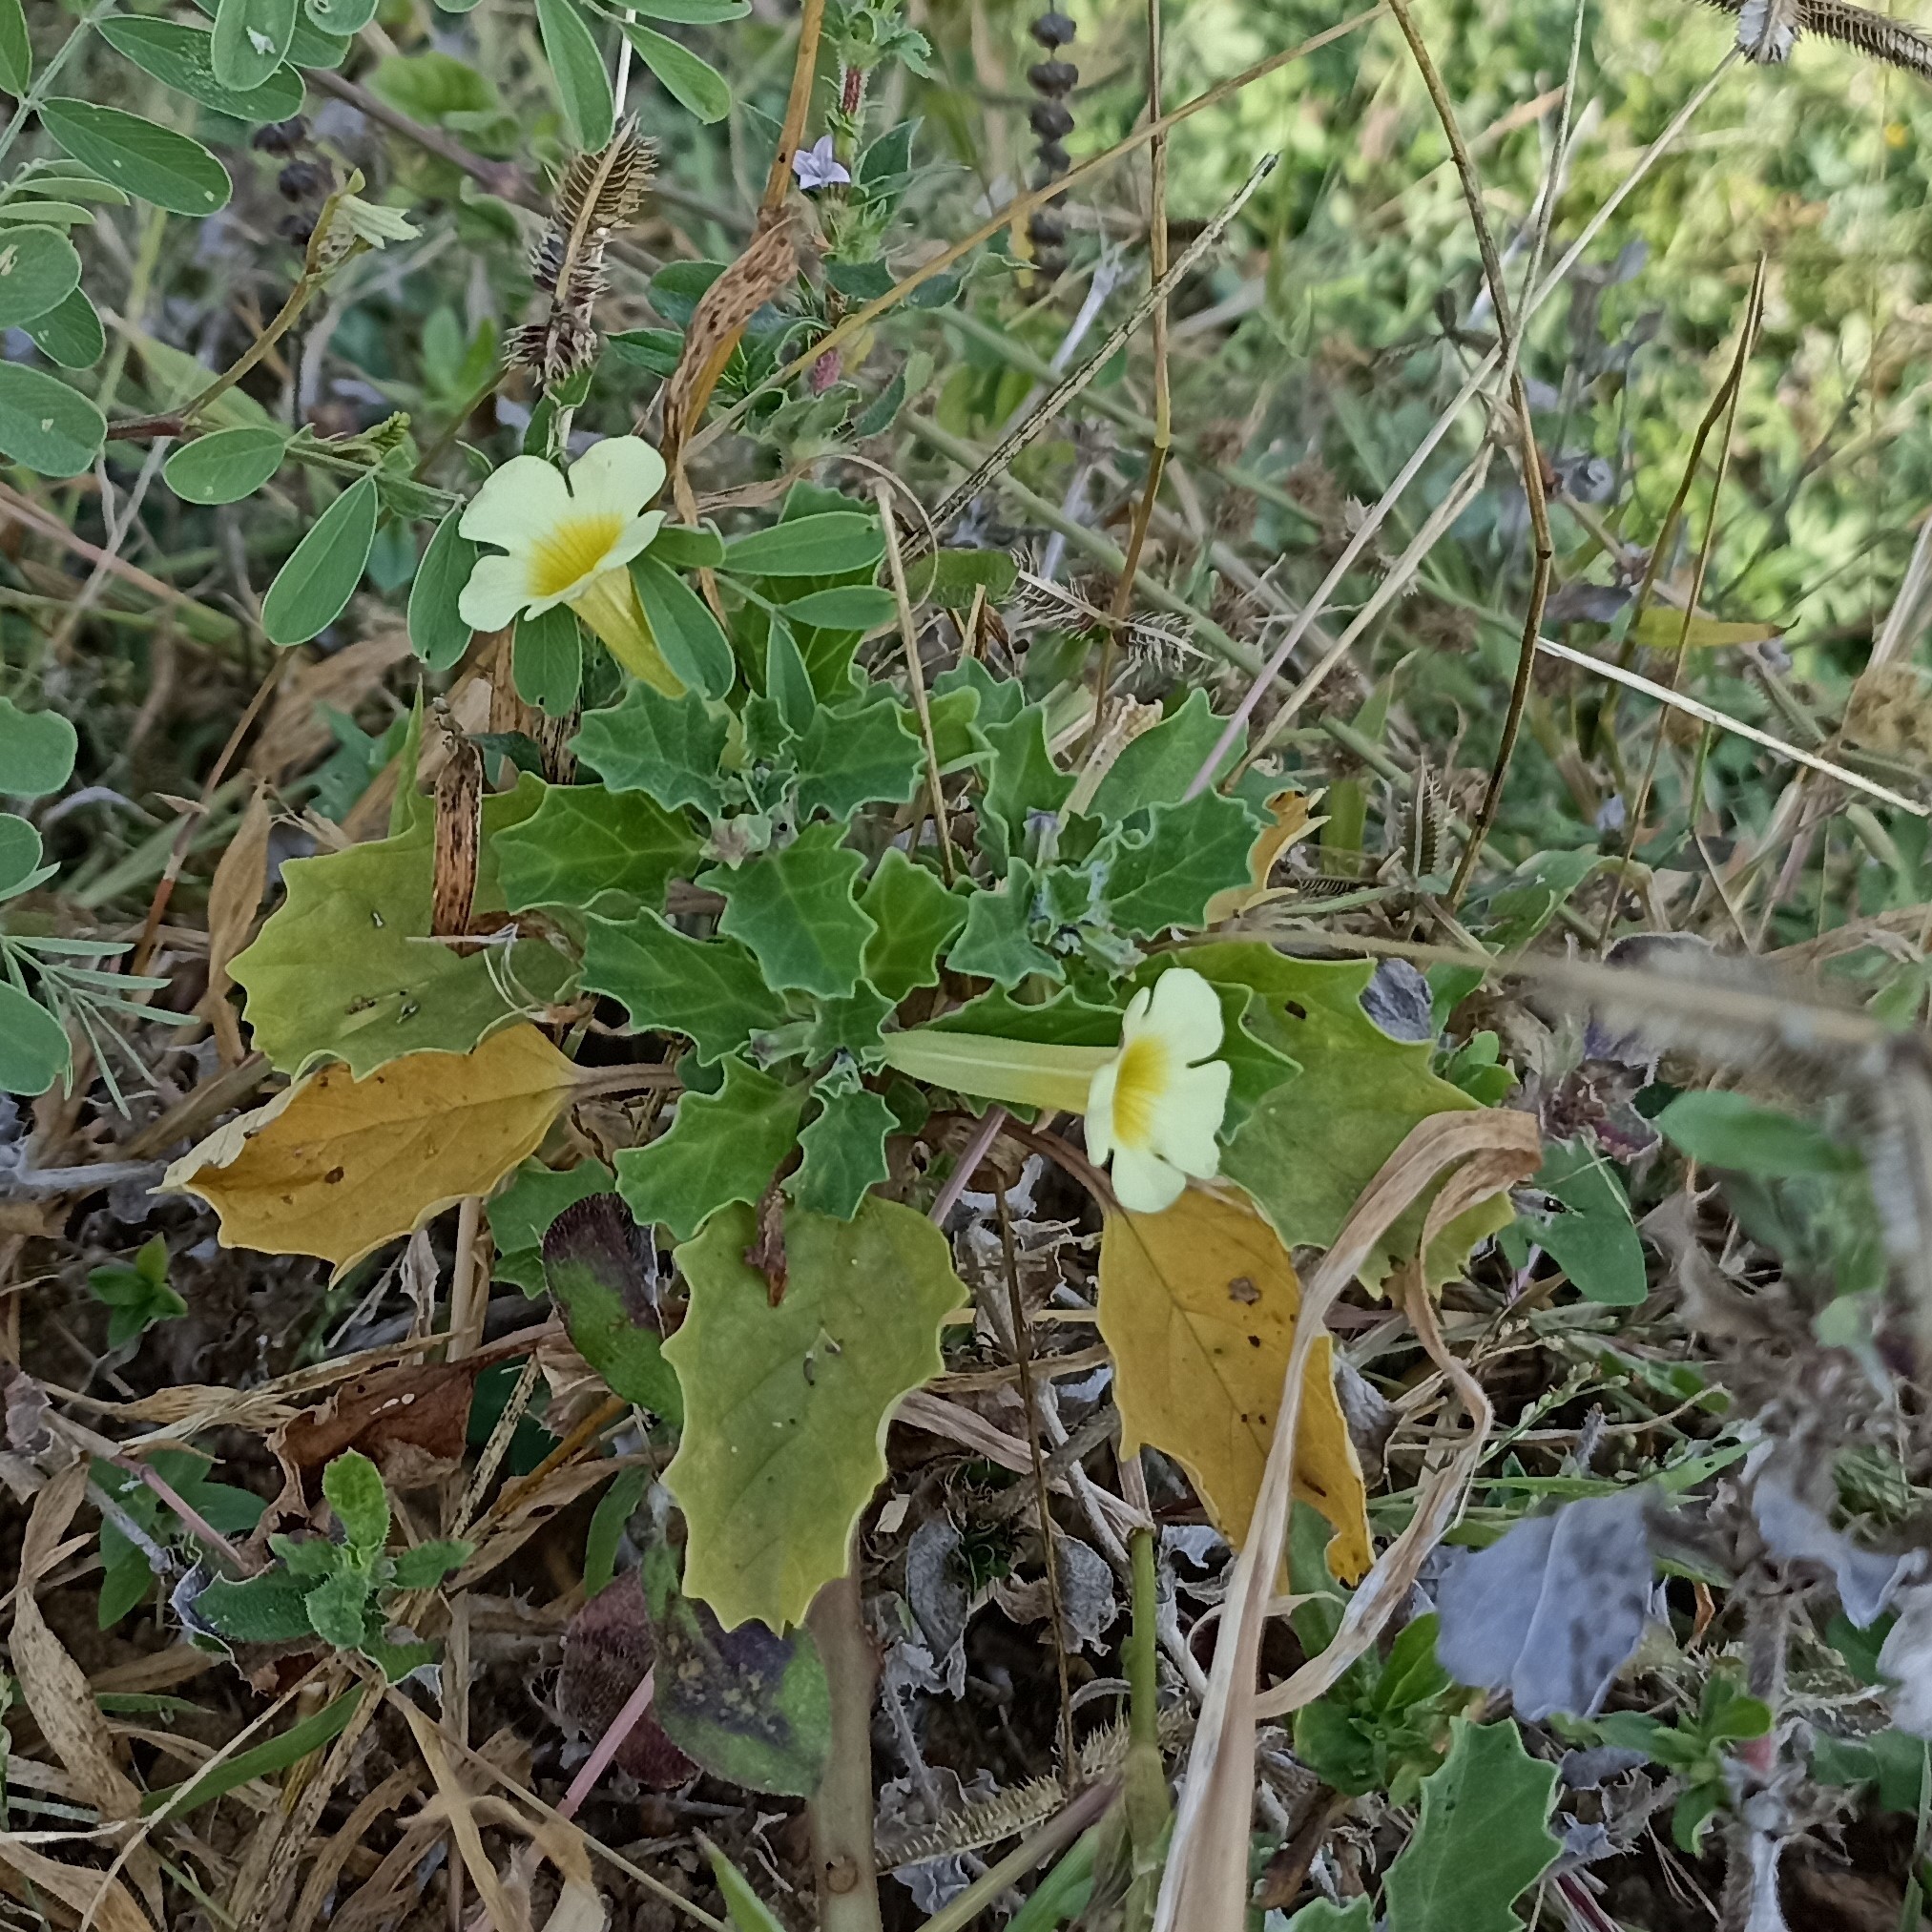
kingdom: Plantae
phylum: Tracheophyta
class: Magnoliopsida
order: Lamiales
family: Pedaliaceae
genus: Pedalium
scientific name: Pedalium murex
